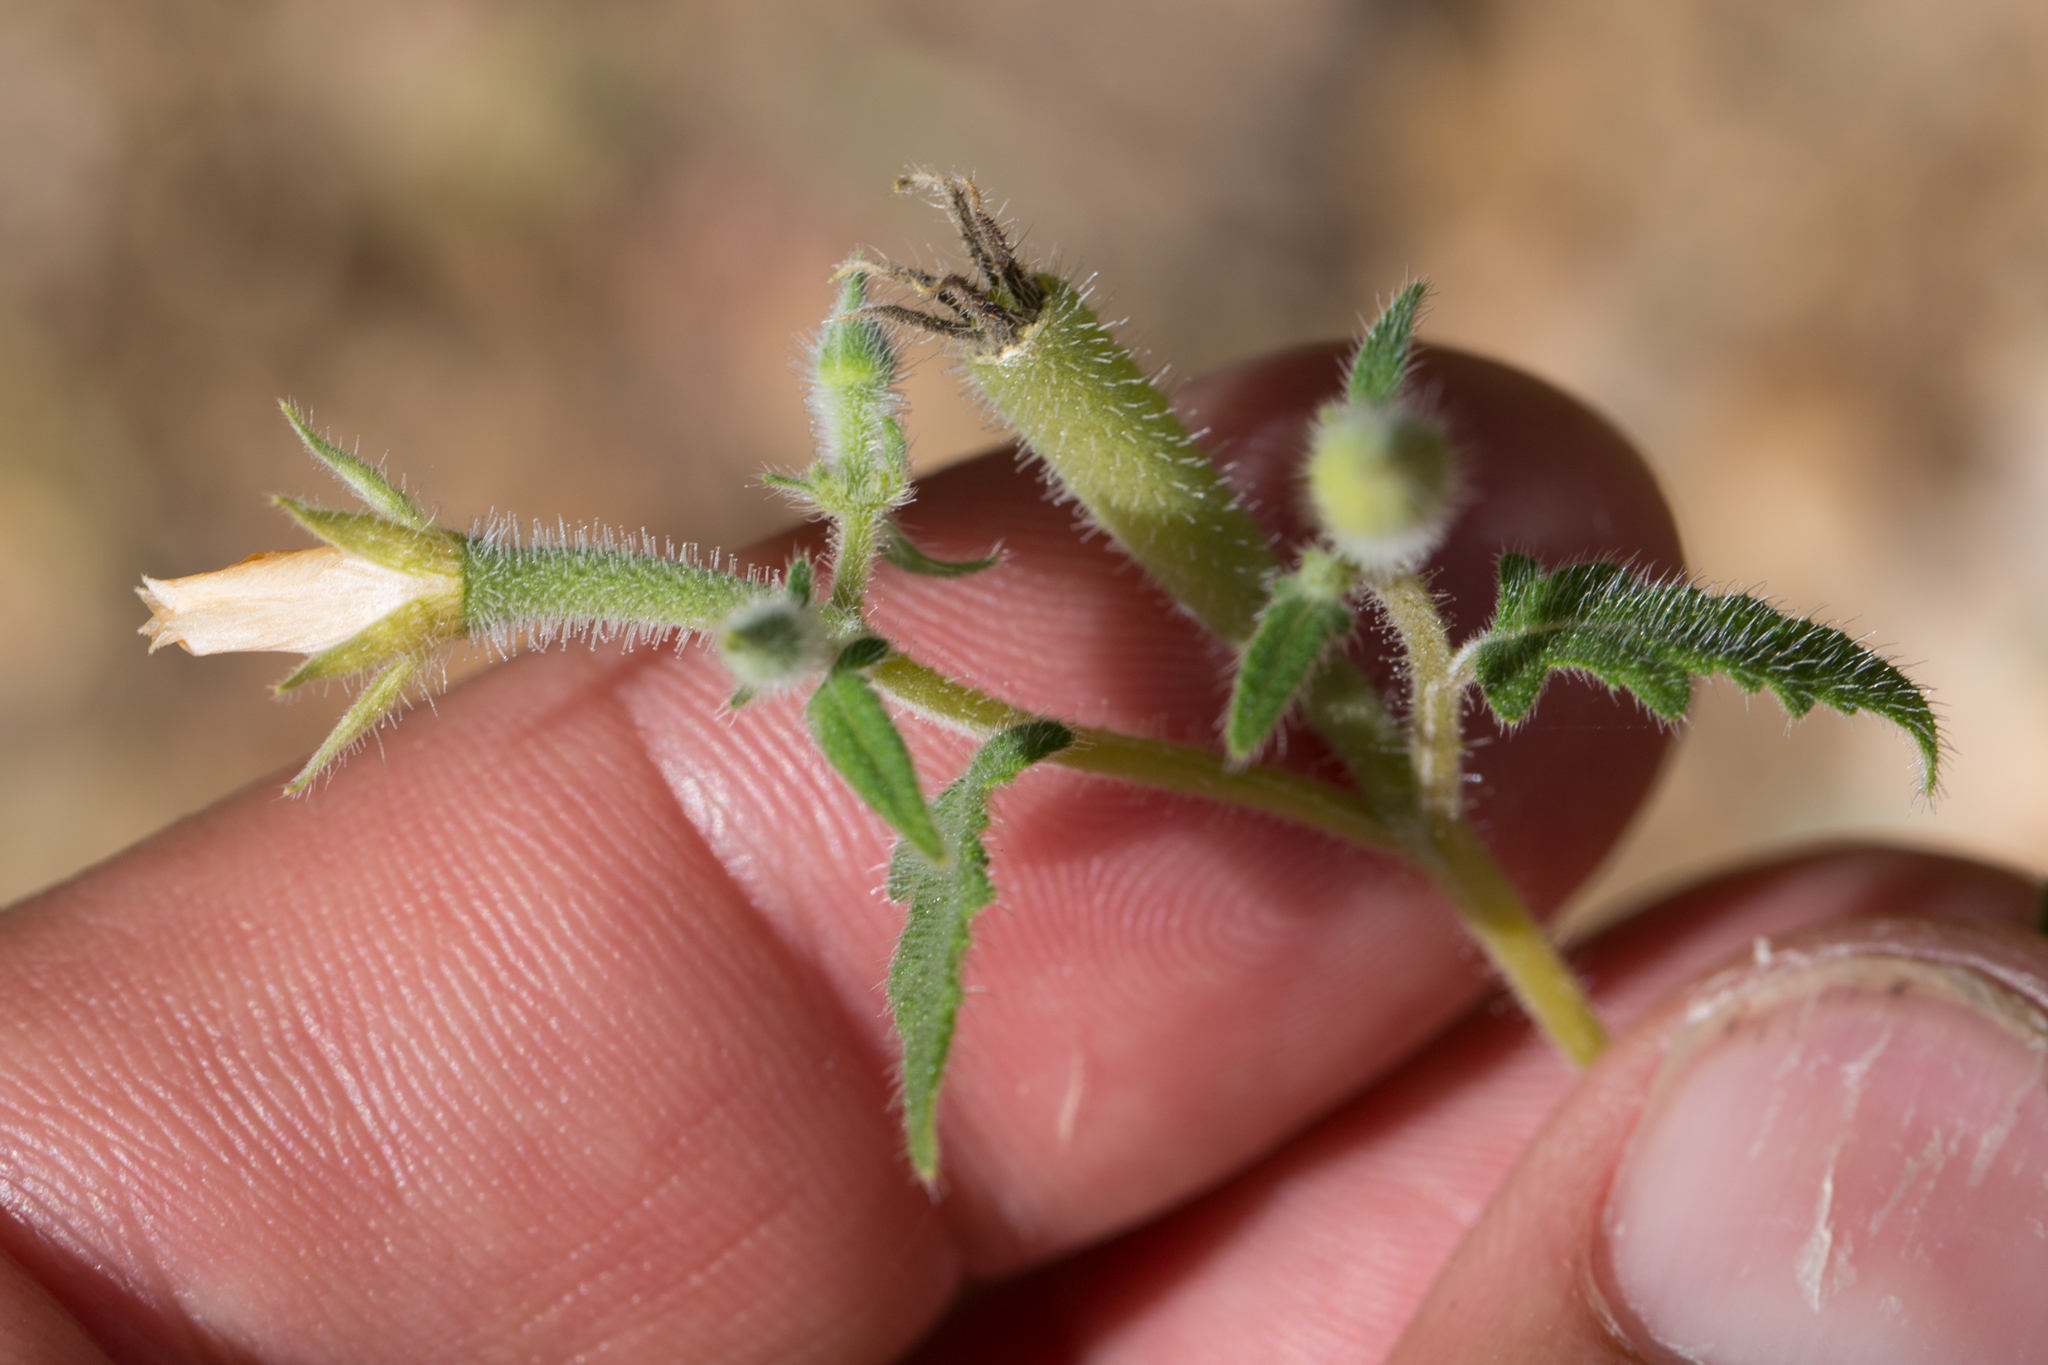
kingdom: Plantae
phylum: Tracheophyta
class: Magnoliopsida
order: Cornales
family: Loasaceae
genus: Mentzelia
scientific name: Mentzelia aspera
